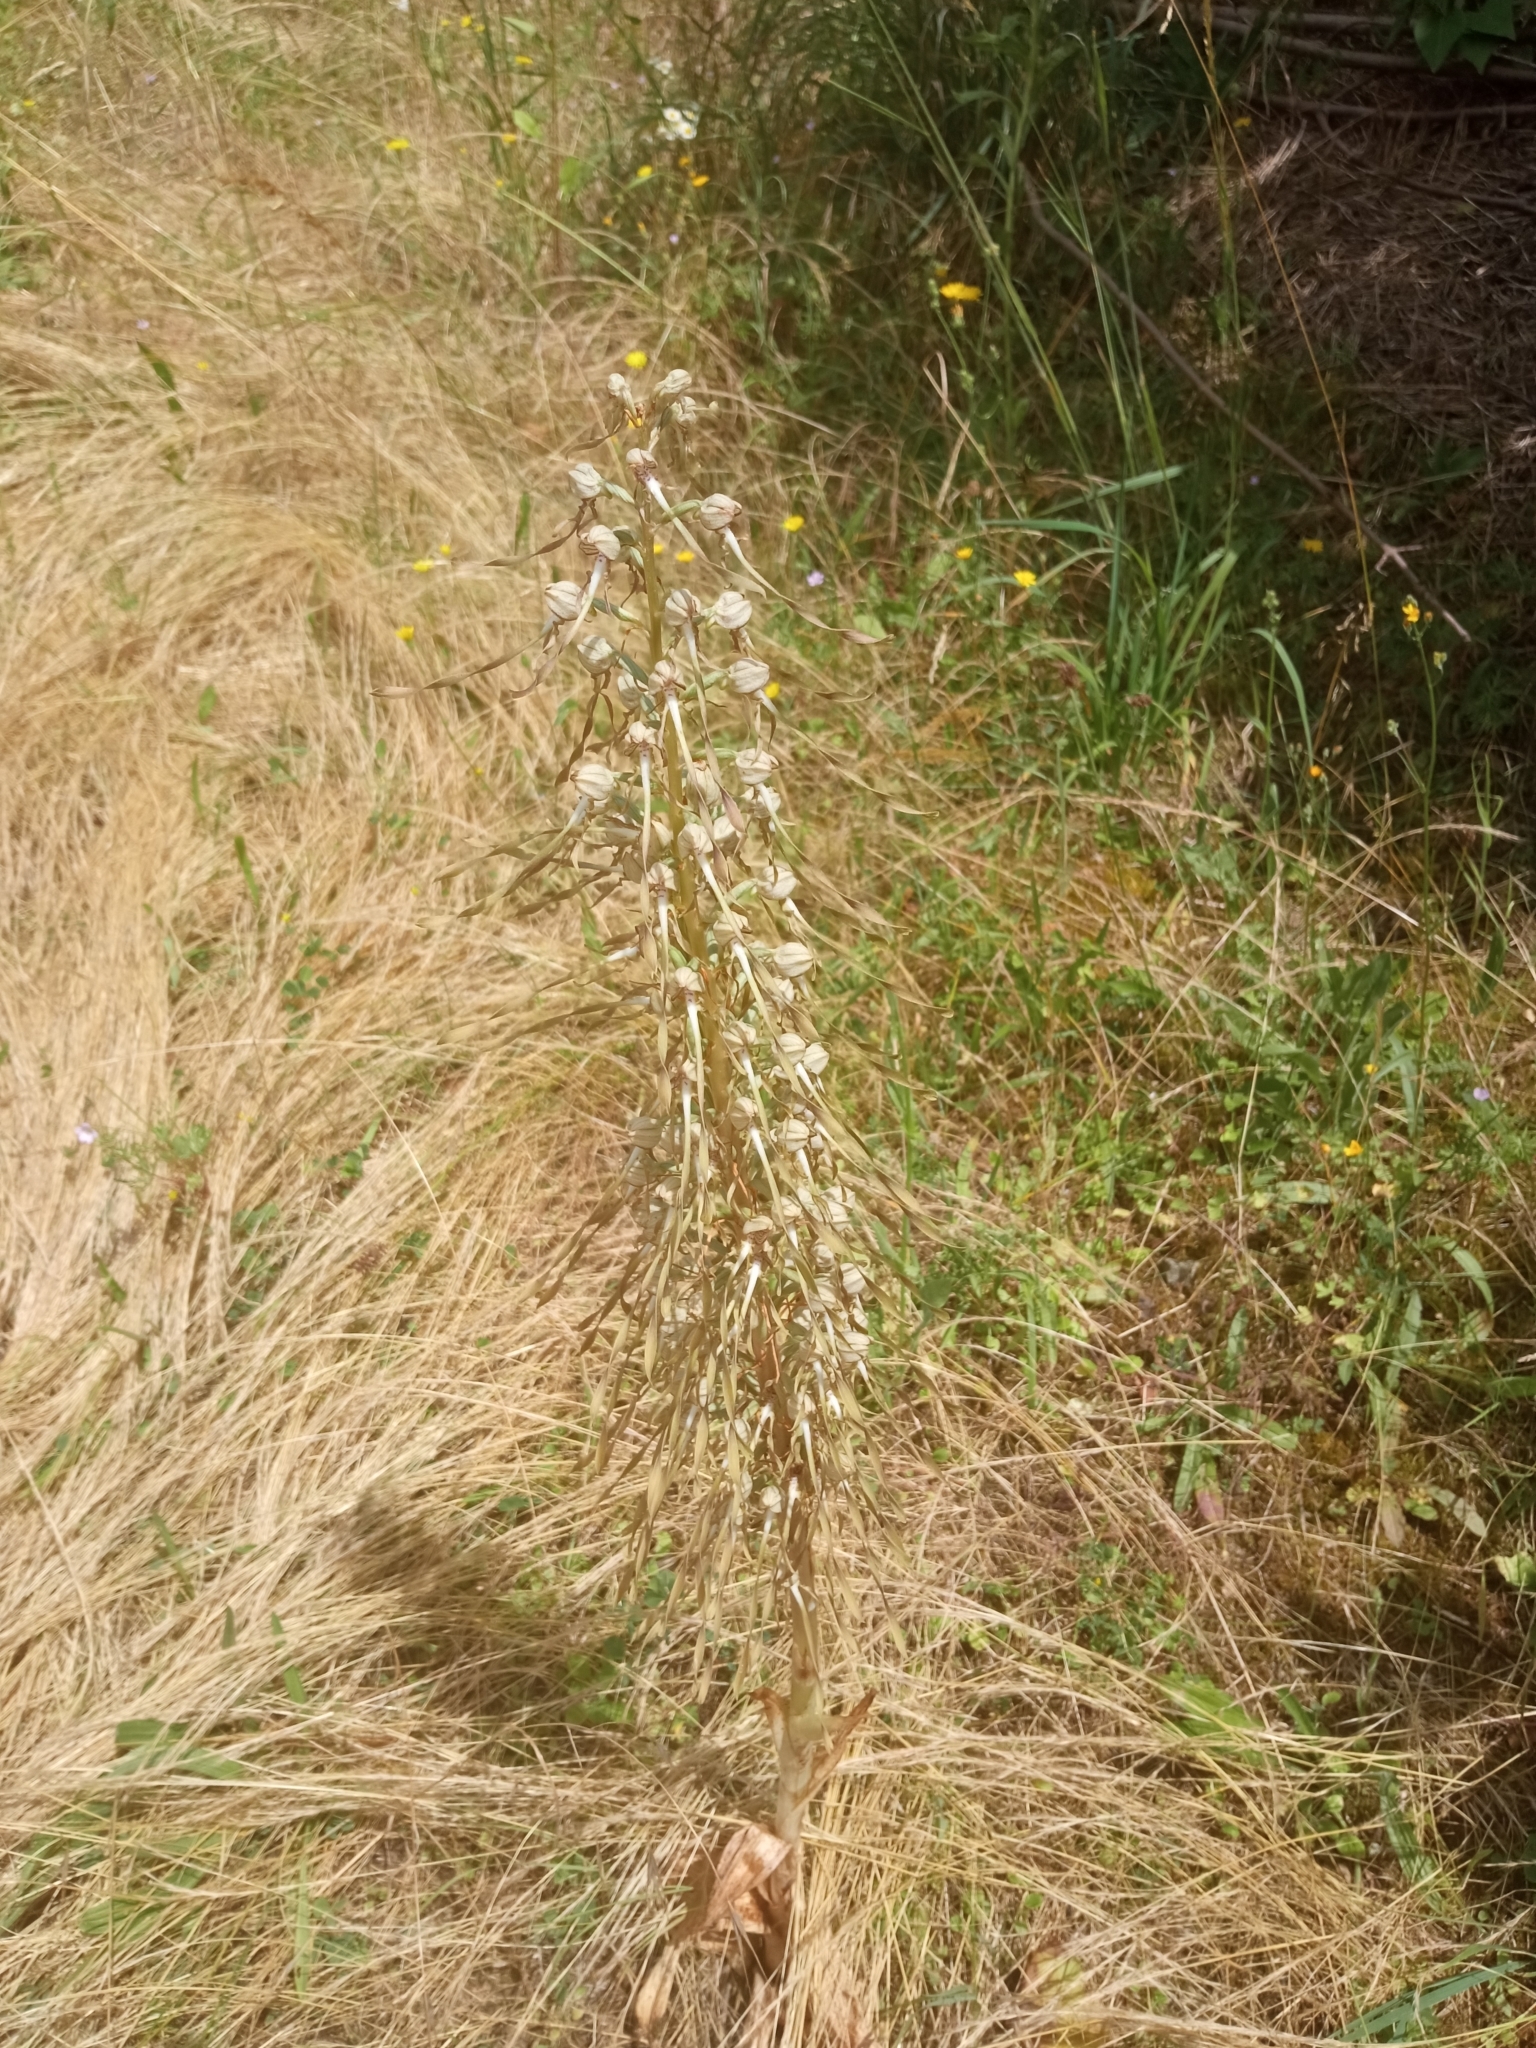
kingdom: Plantae
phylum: Tracheophyta
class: Liliopsida
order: Asparagales
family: Orchidaceae
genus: Himantoglossum
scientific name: Himantoglossum hircinum
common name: Lizard orchid
